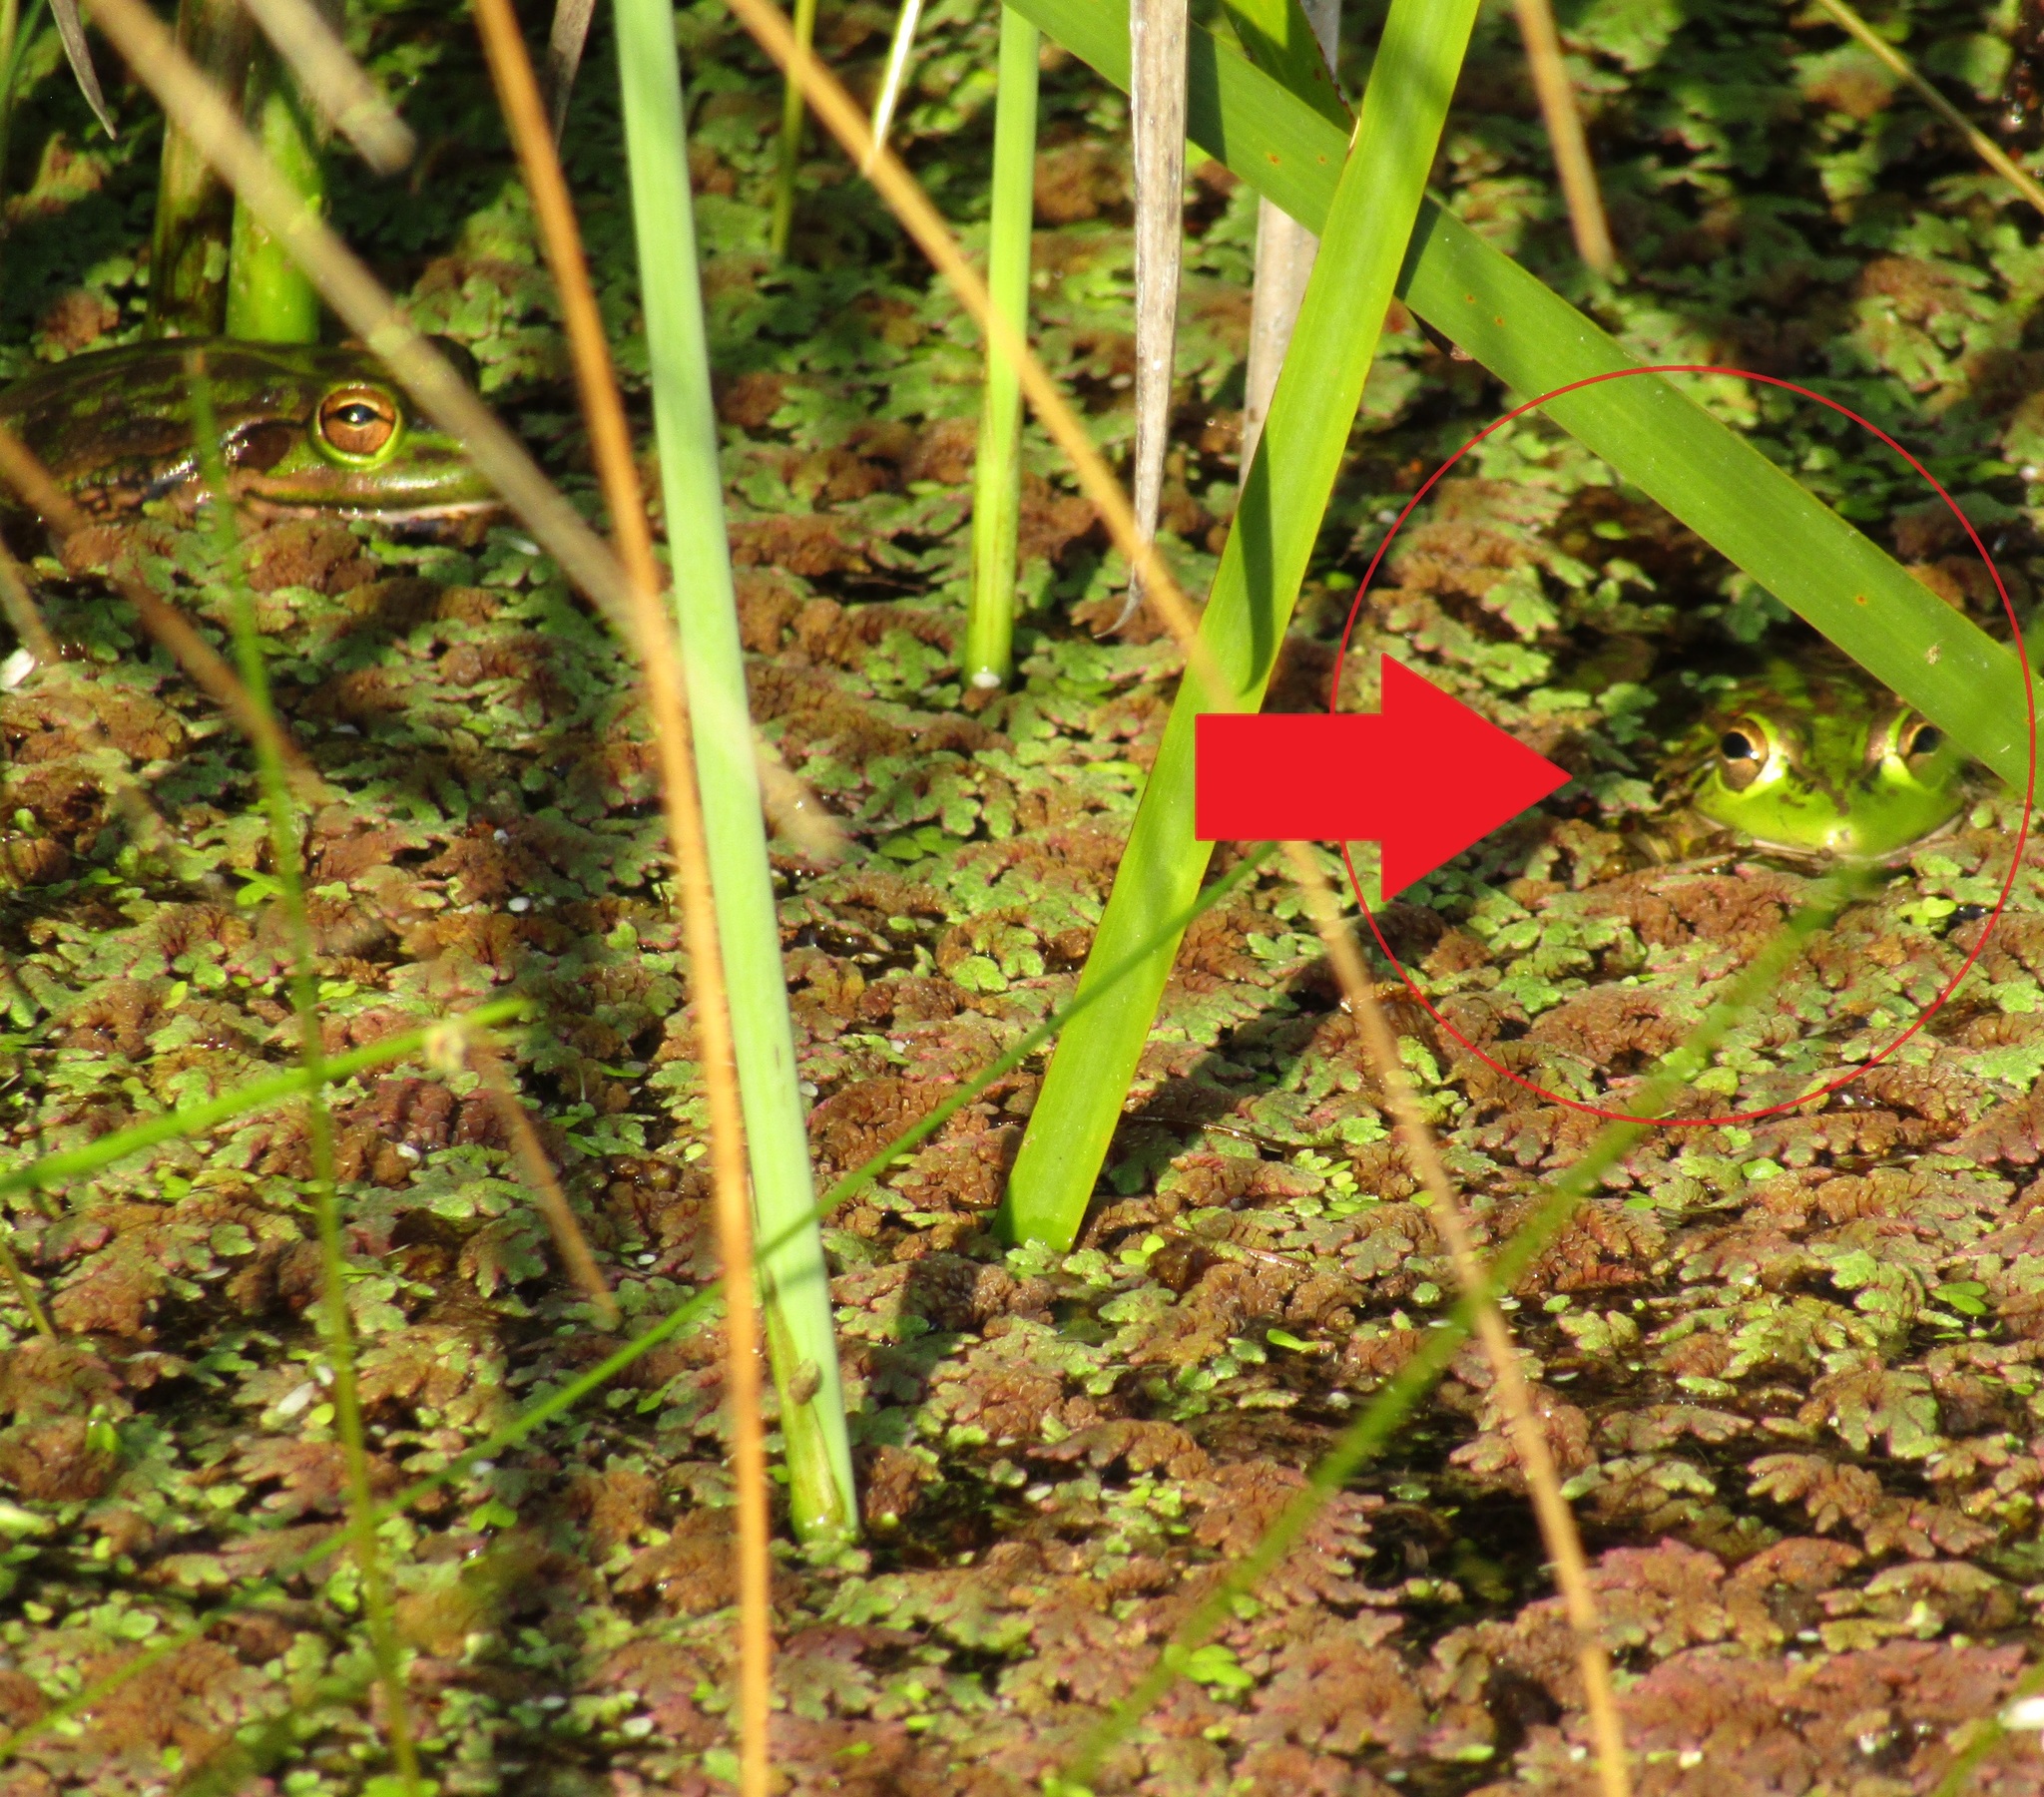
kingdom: Animalia
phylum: Chordata
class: Amphibia
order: Anura
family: Pelodryadidae
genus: Ranoidea
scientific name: Ranoidea aurea
